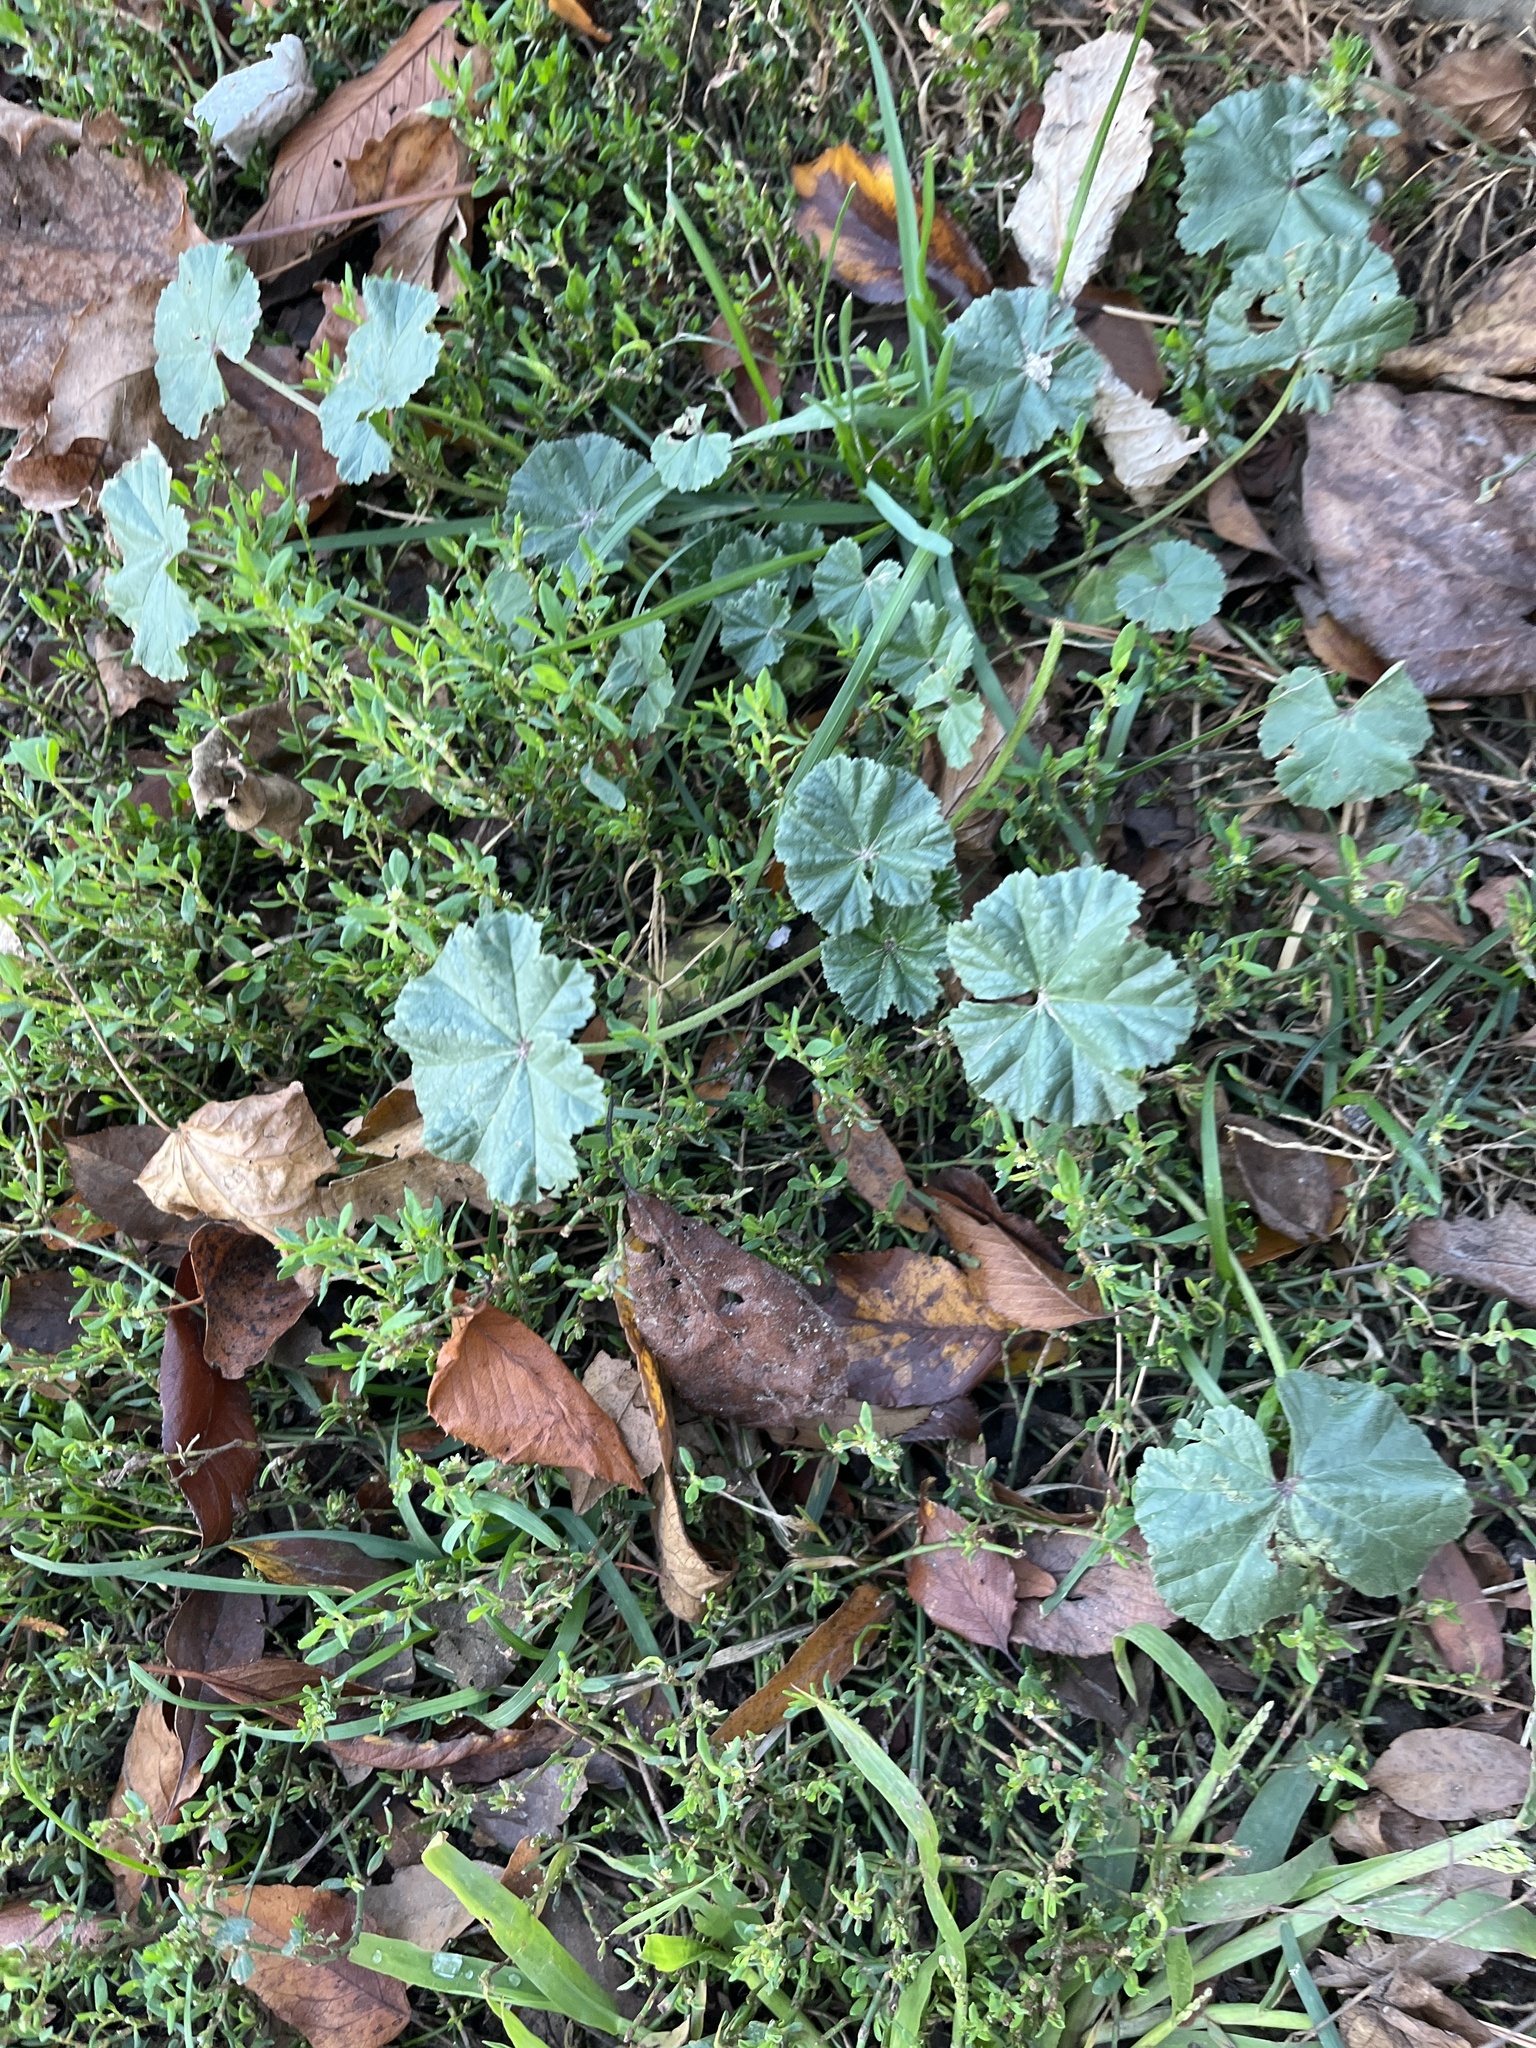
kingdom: Plantae
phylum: Tracheophyta
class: Magnoliopsida
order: Malvales
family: Malvaceae
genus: Malva
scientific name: Malva
